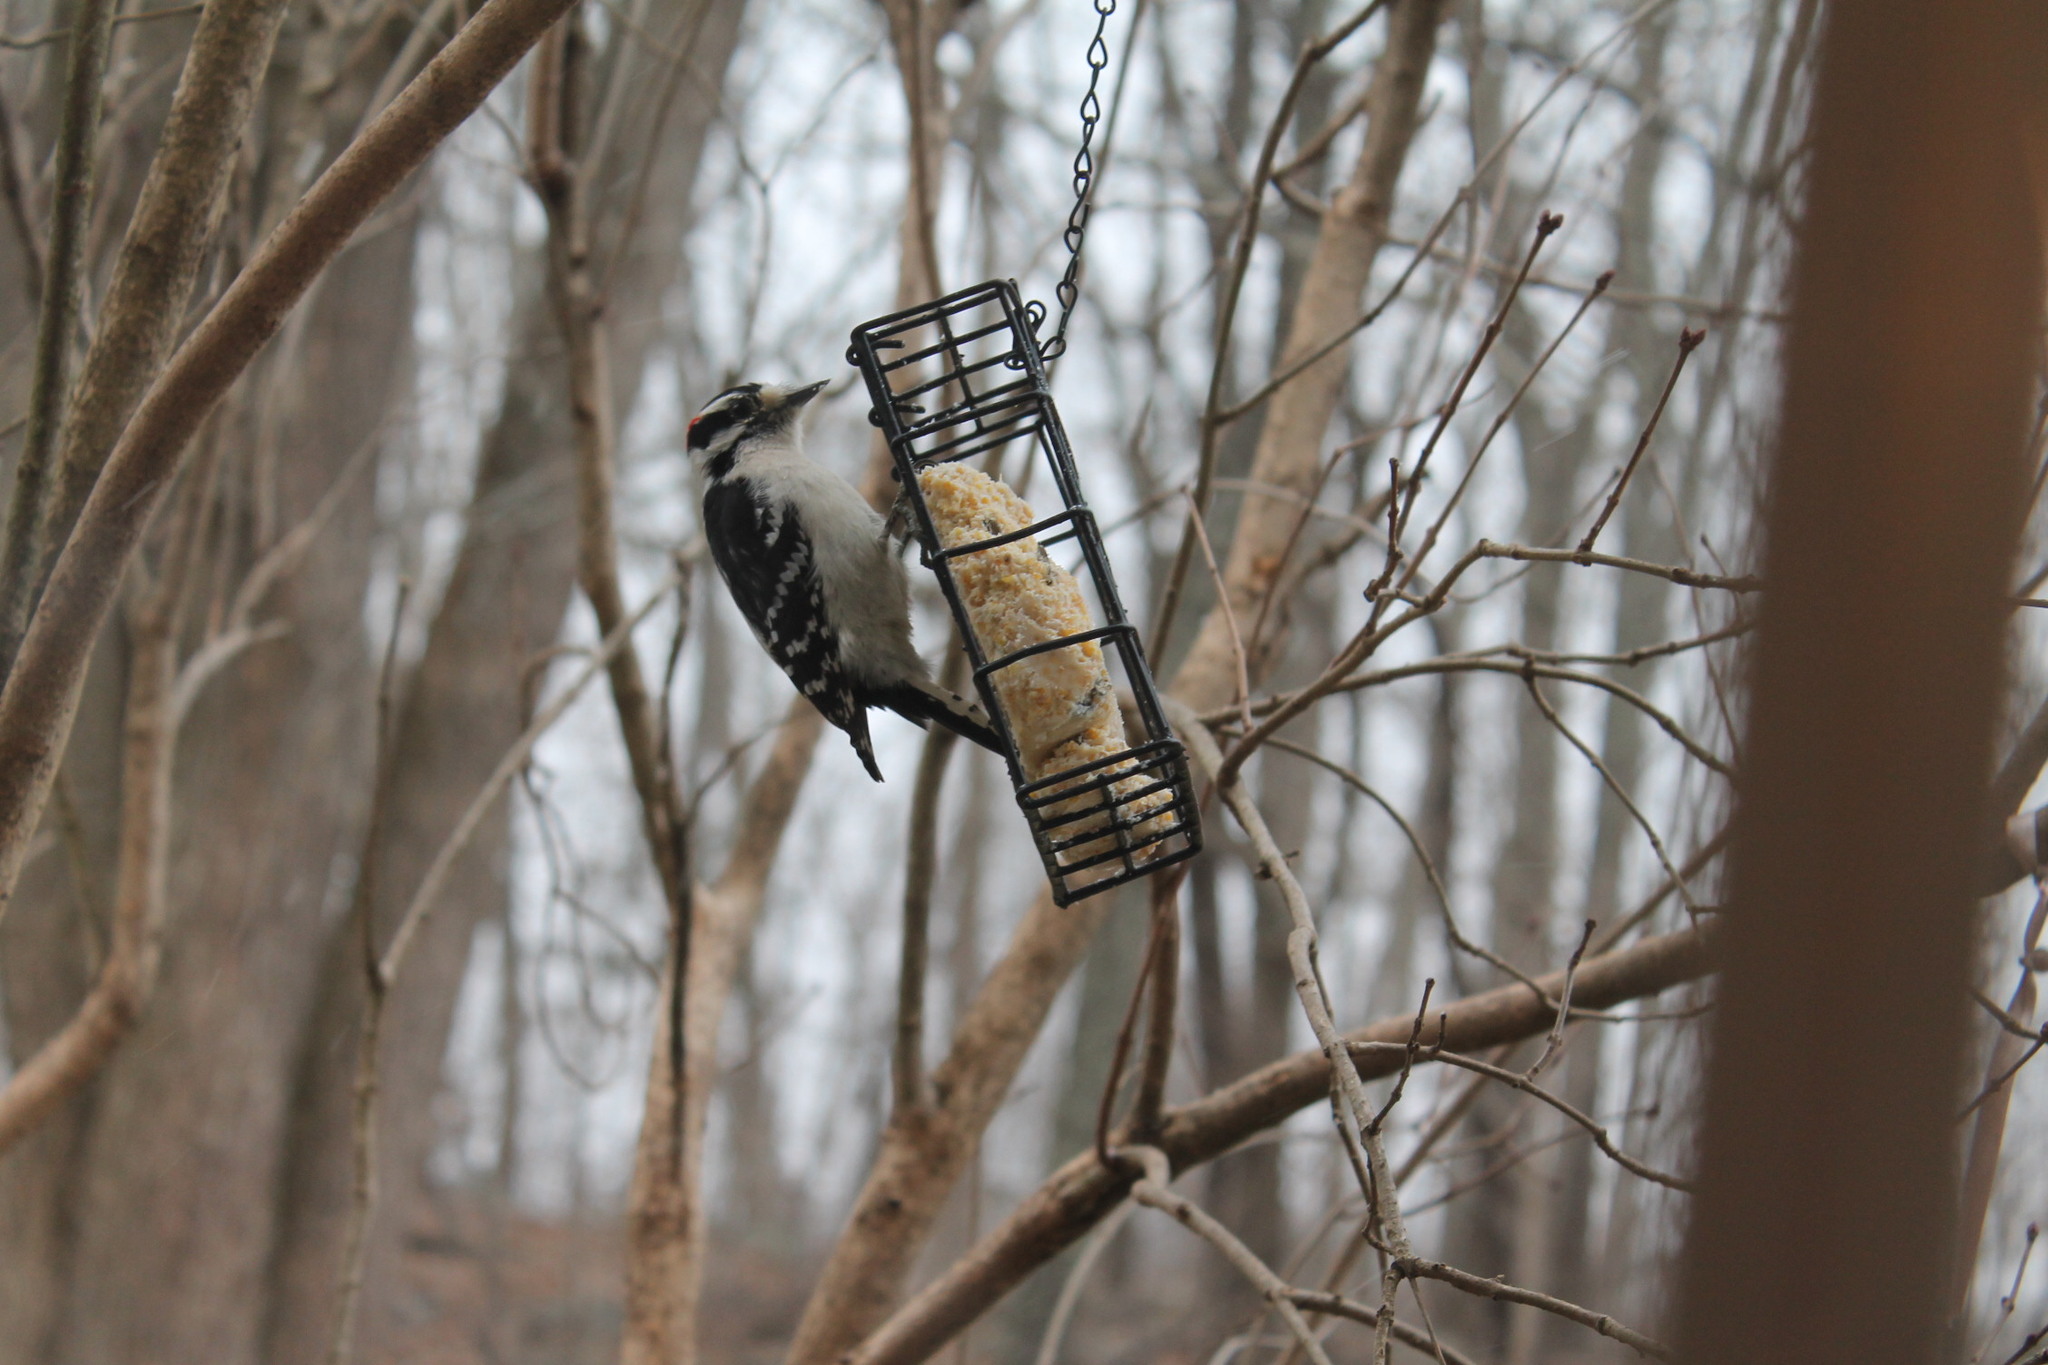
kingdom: Animalia
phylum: Chordata
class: Aves
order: Piciformes
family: Picidae
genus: Dryobates
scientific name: Dryobates pubescens
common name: Downy woodpecker
